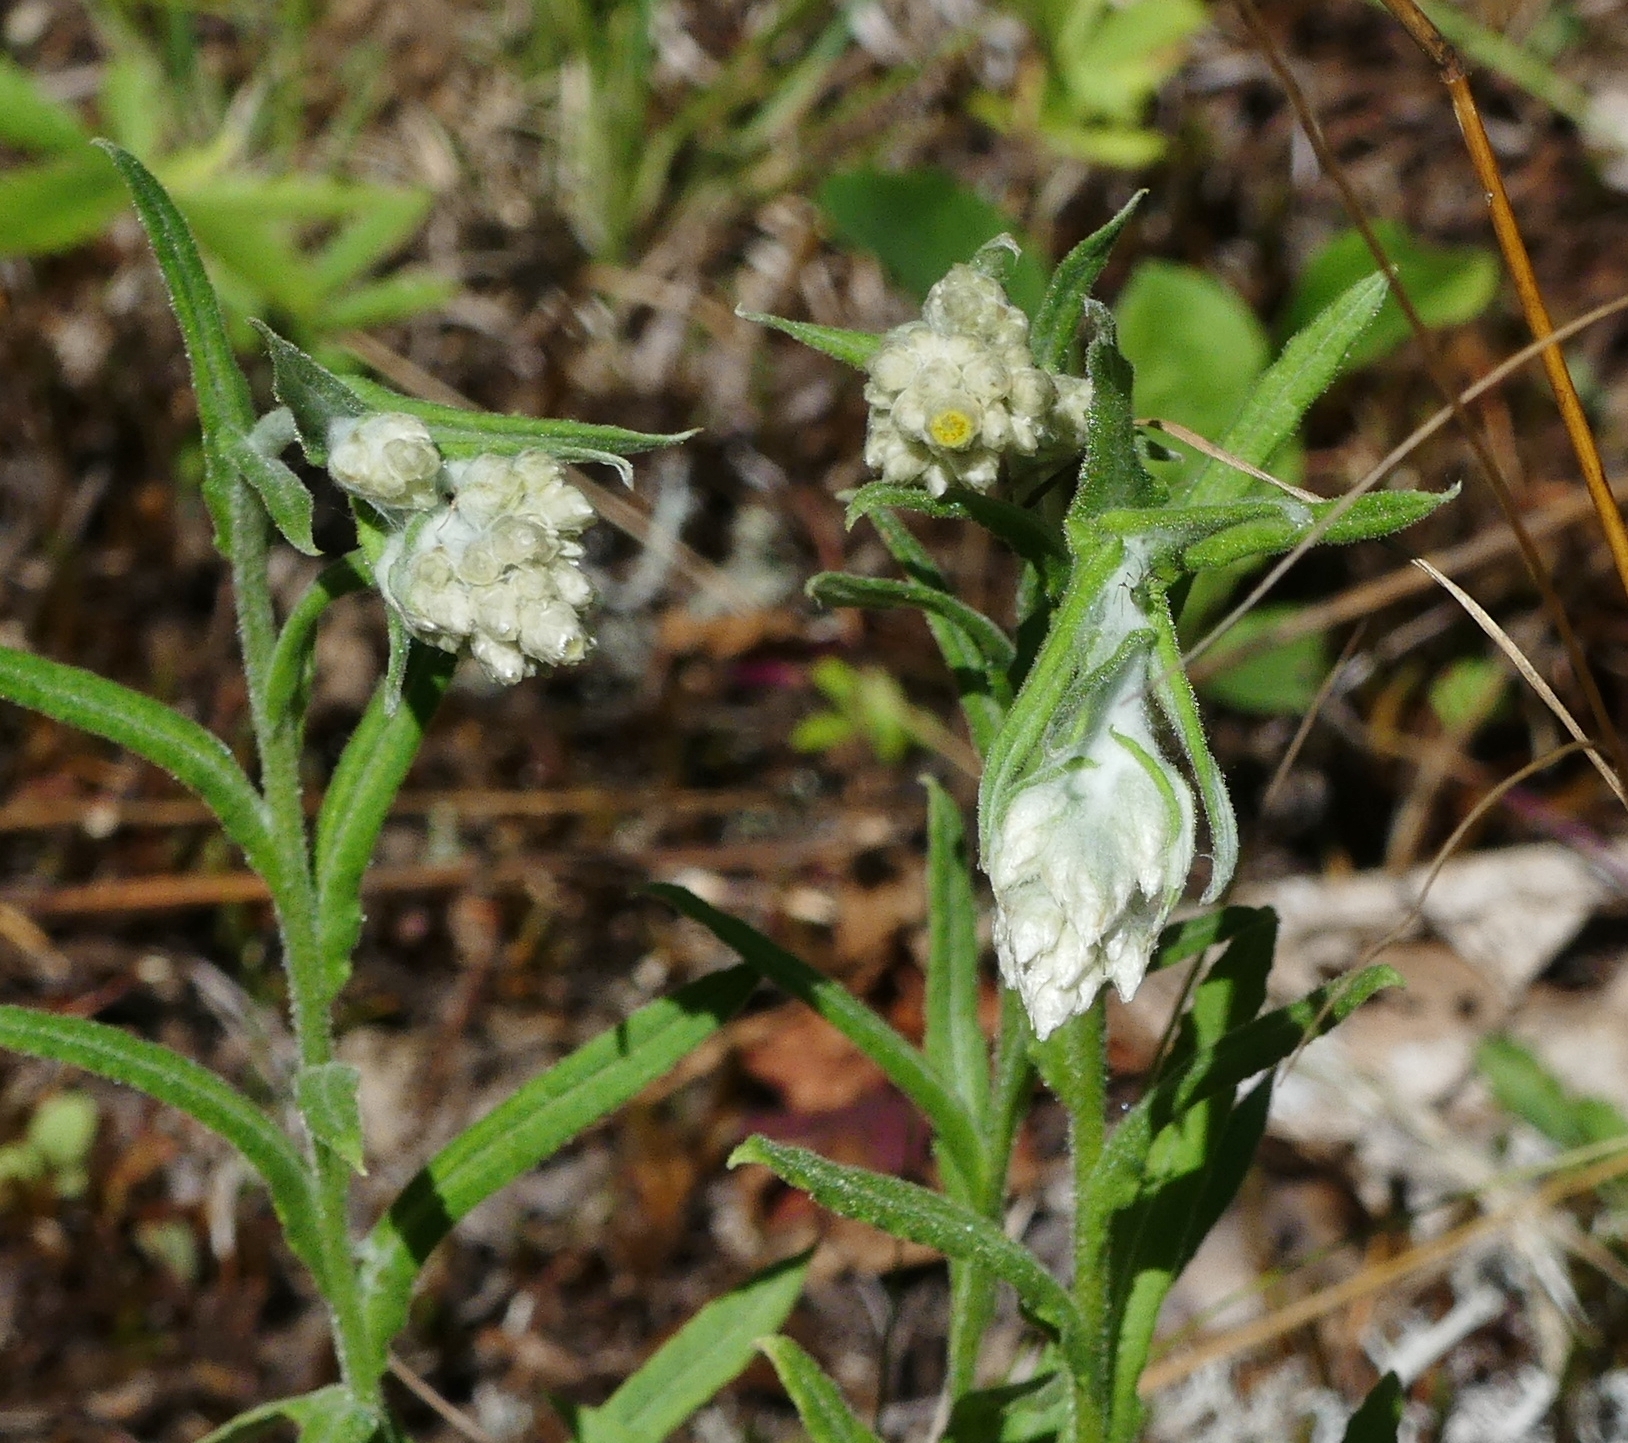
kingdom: Plantae
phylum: Tracheophyta
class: Magnoliopsida
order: Asterales
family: Asteraceae
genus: Pseudognaphalium
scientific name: Pseudognaphalium macounii
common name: Clammy cudweed
